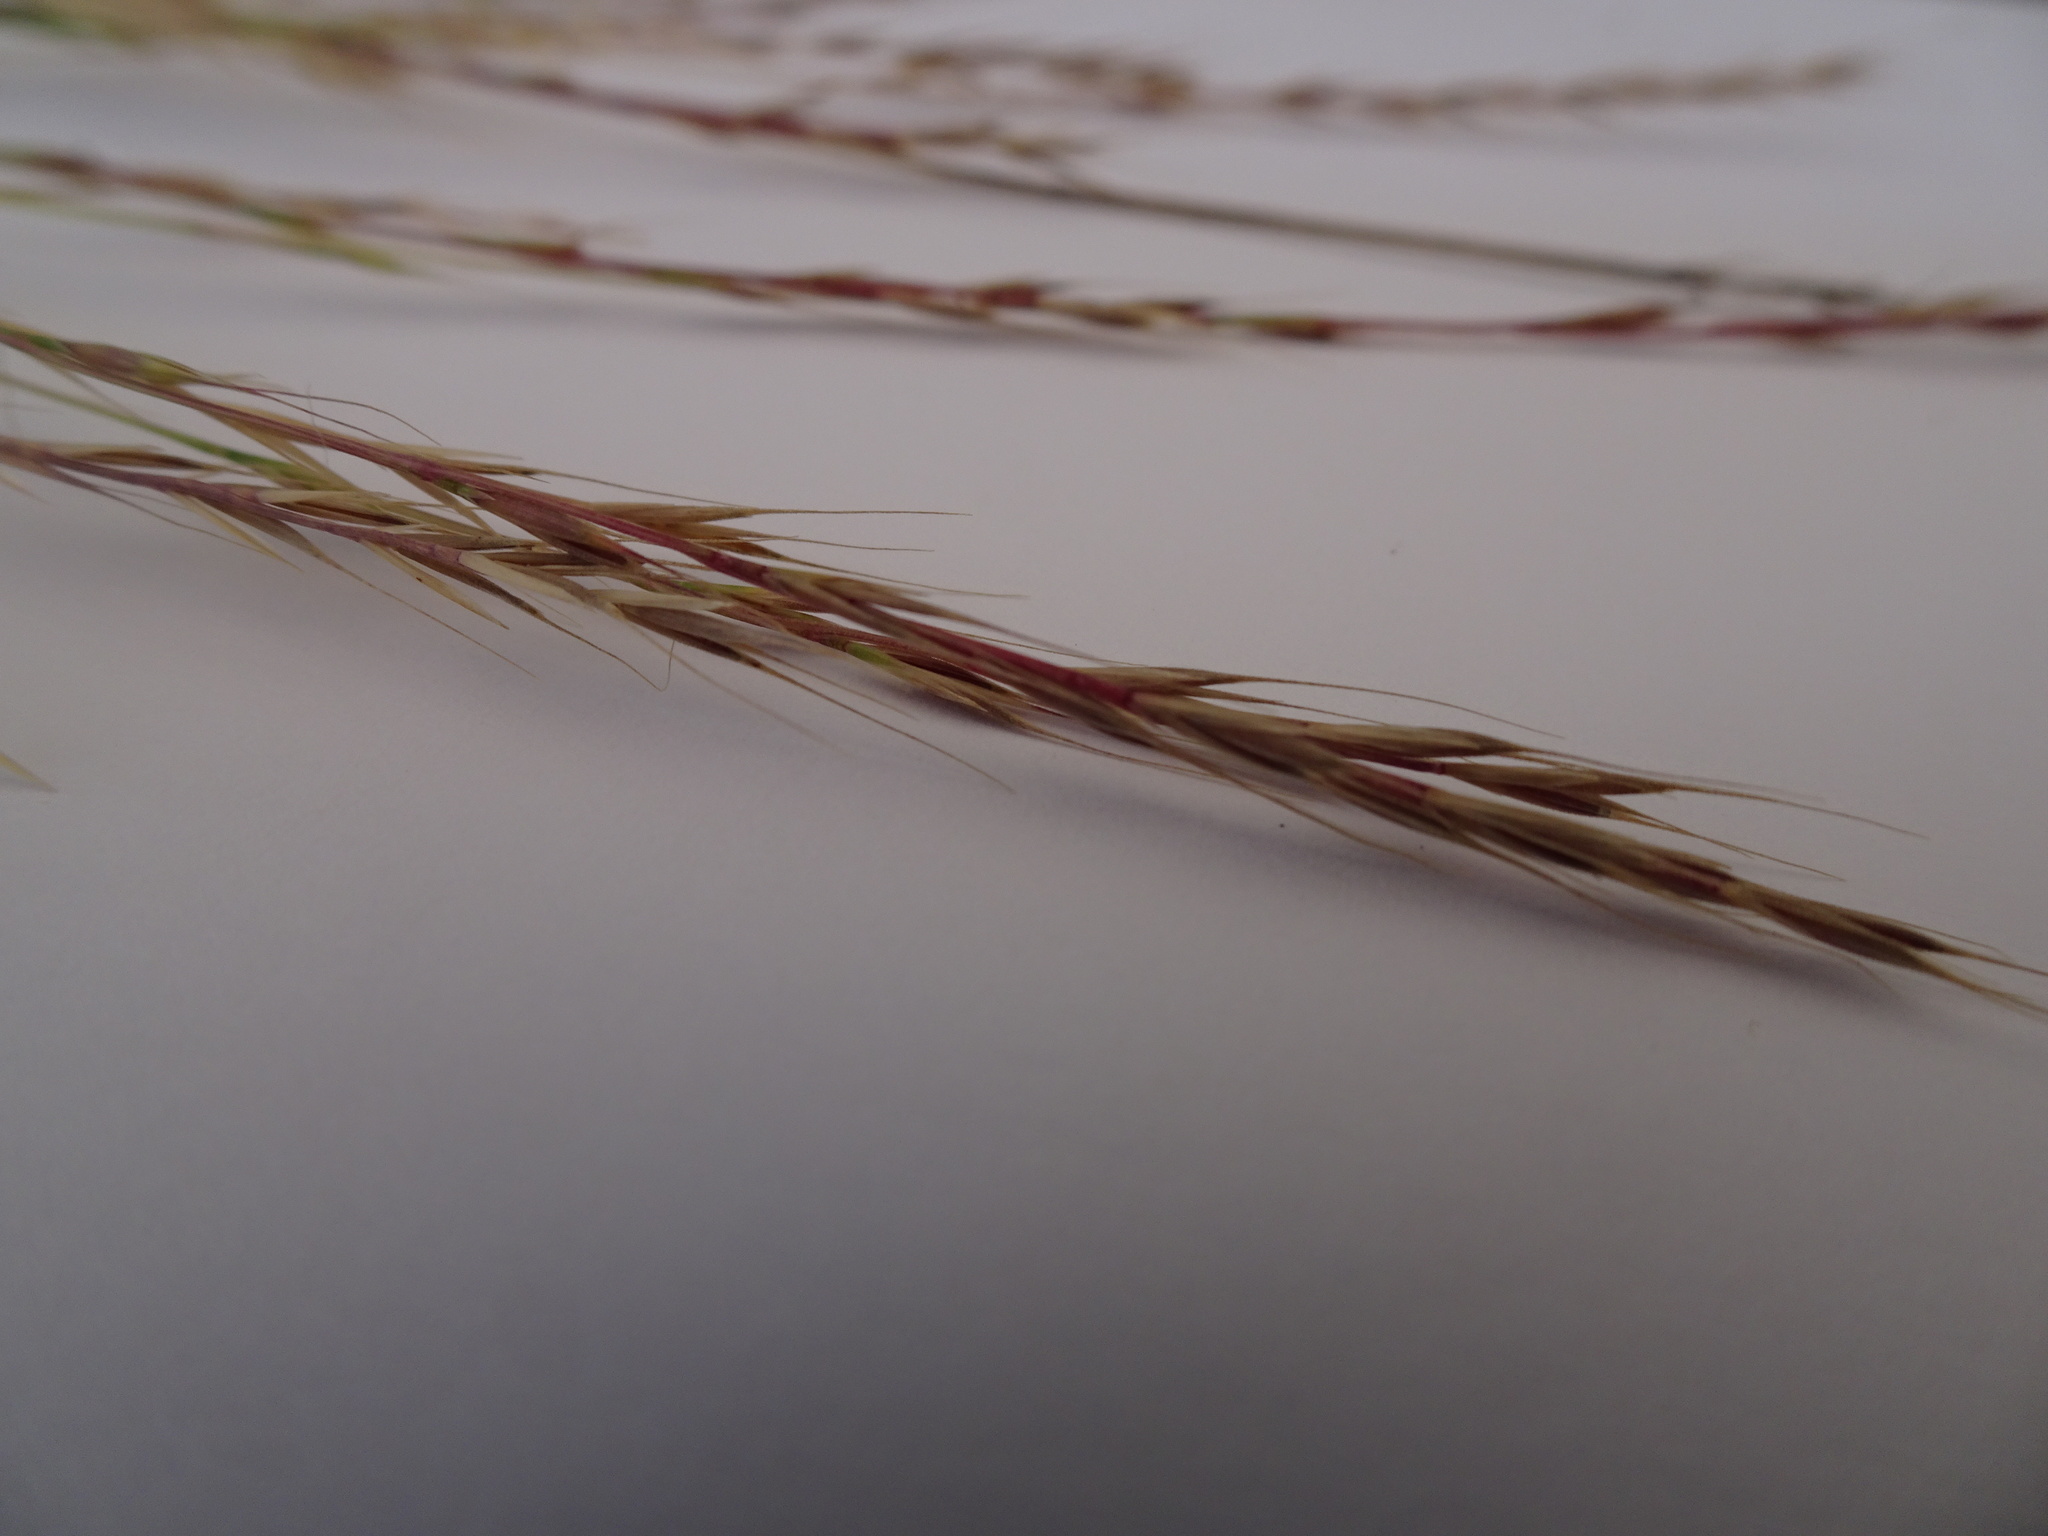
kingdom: Plantae
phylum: Tracheophyta
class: Liliopsida
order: Poales
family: Poaceae
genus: Festuca
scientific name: Festuca myuros
